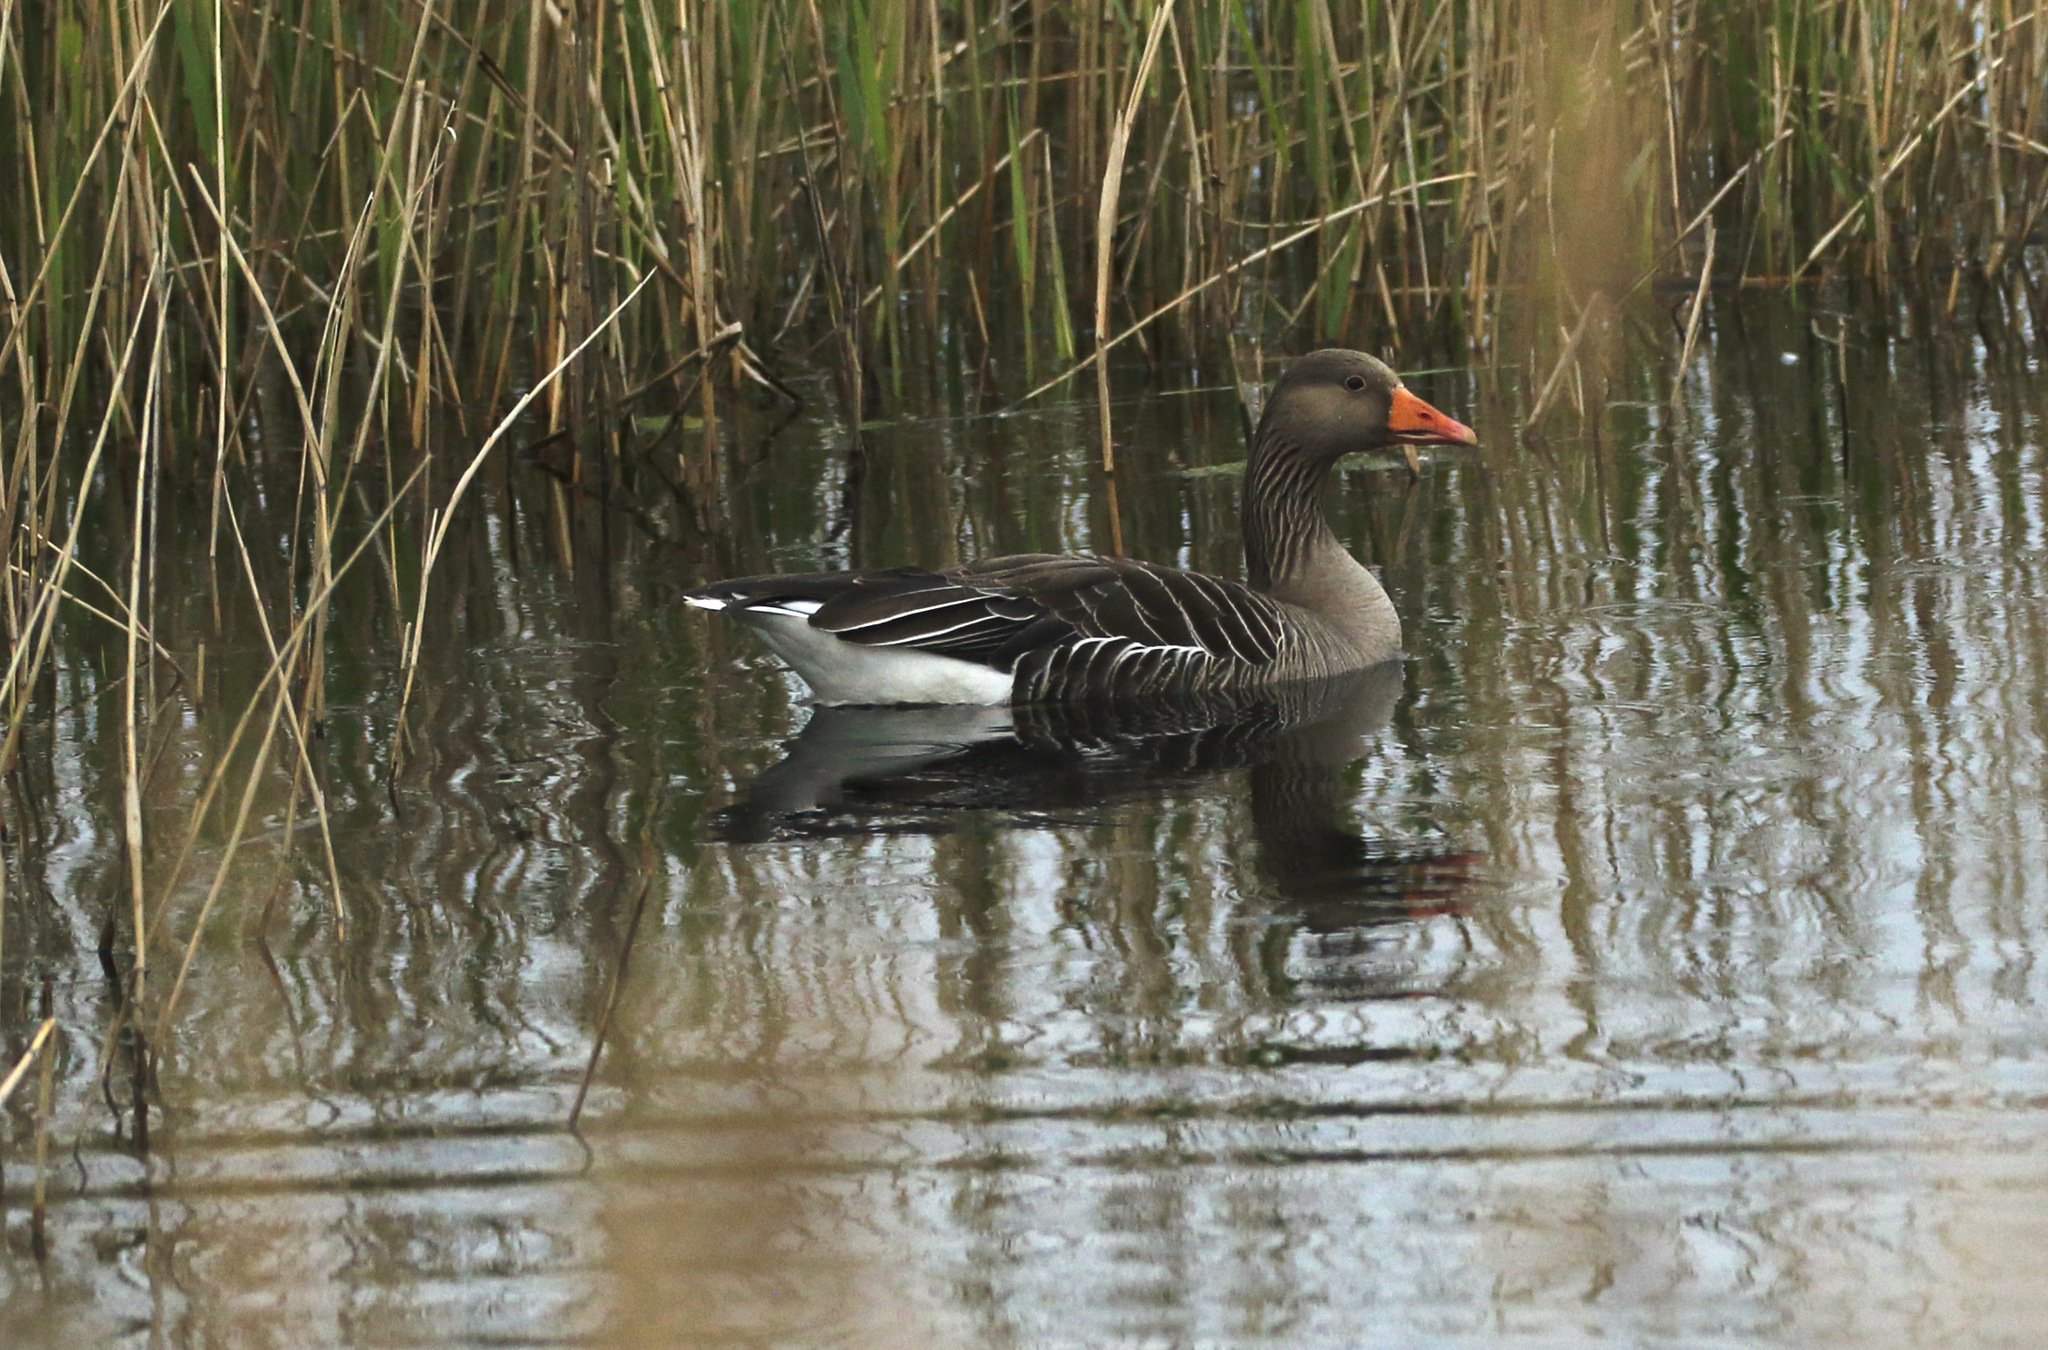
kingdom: Animalia
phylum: Chordata
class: Aves
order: Anseriformes
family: Anatidae
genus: Anser
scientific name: Anser anser
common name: Greylag goose
